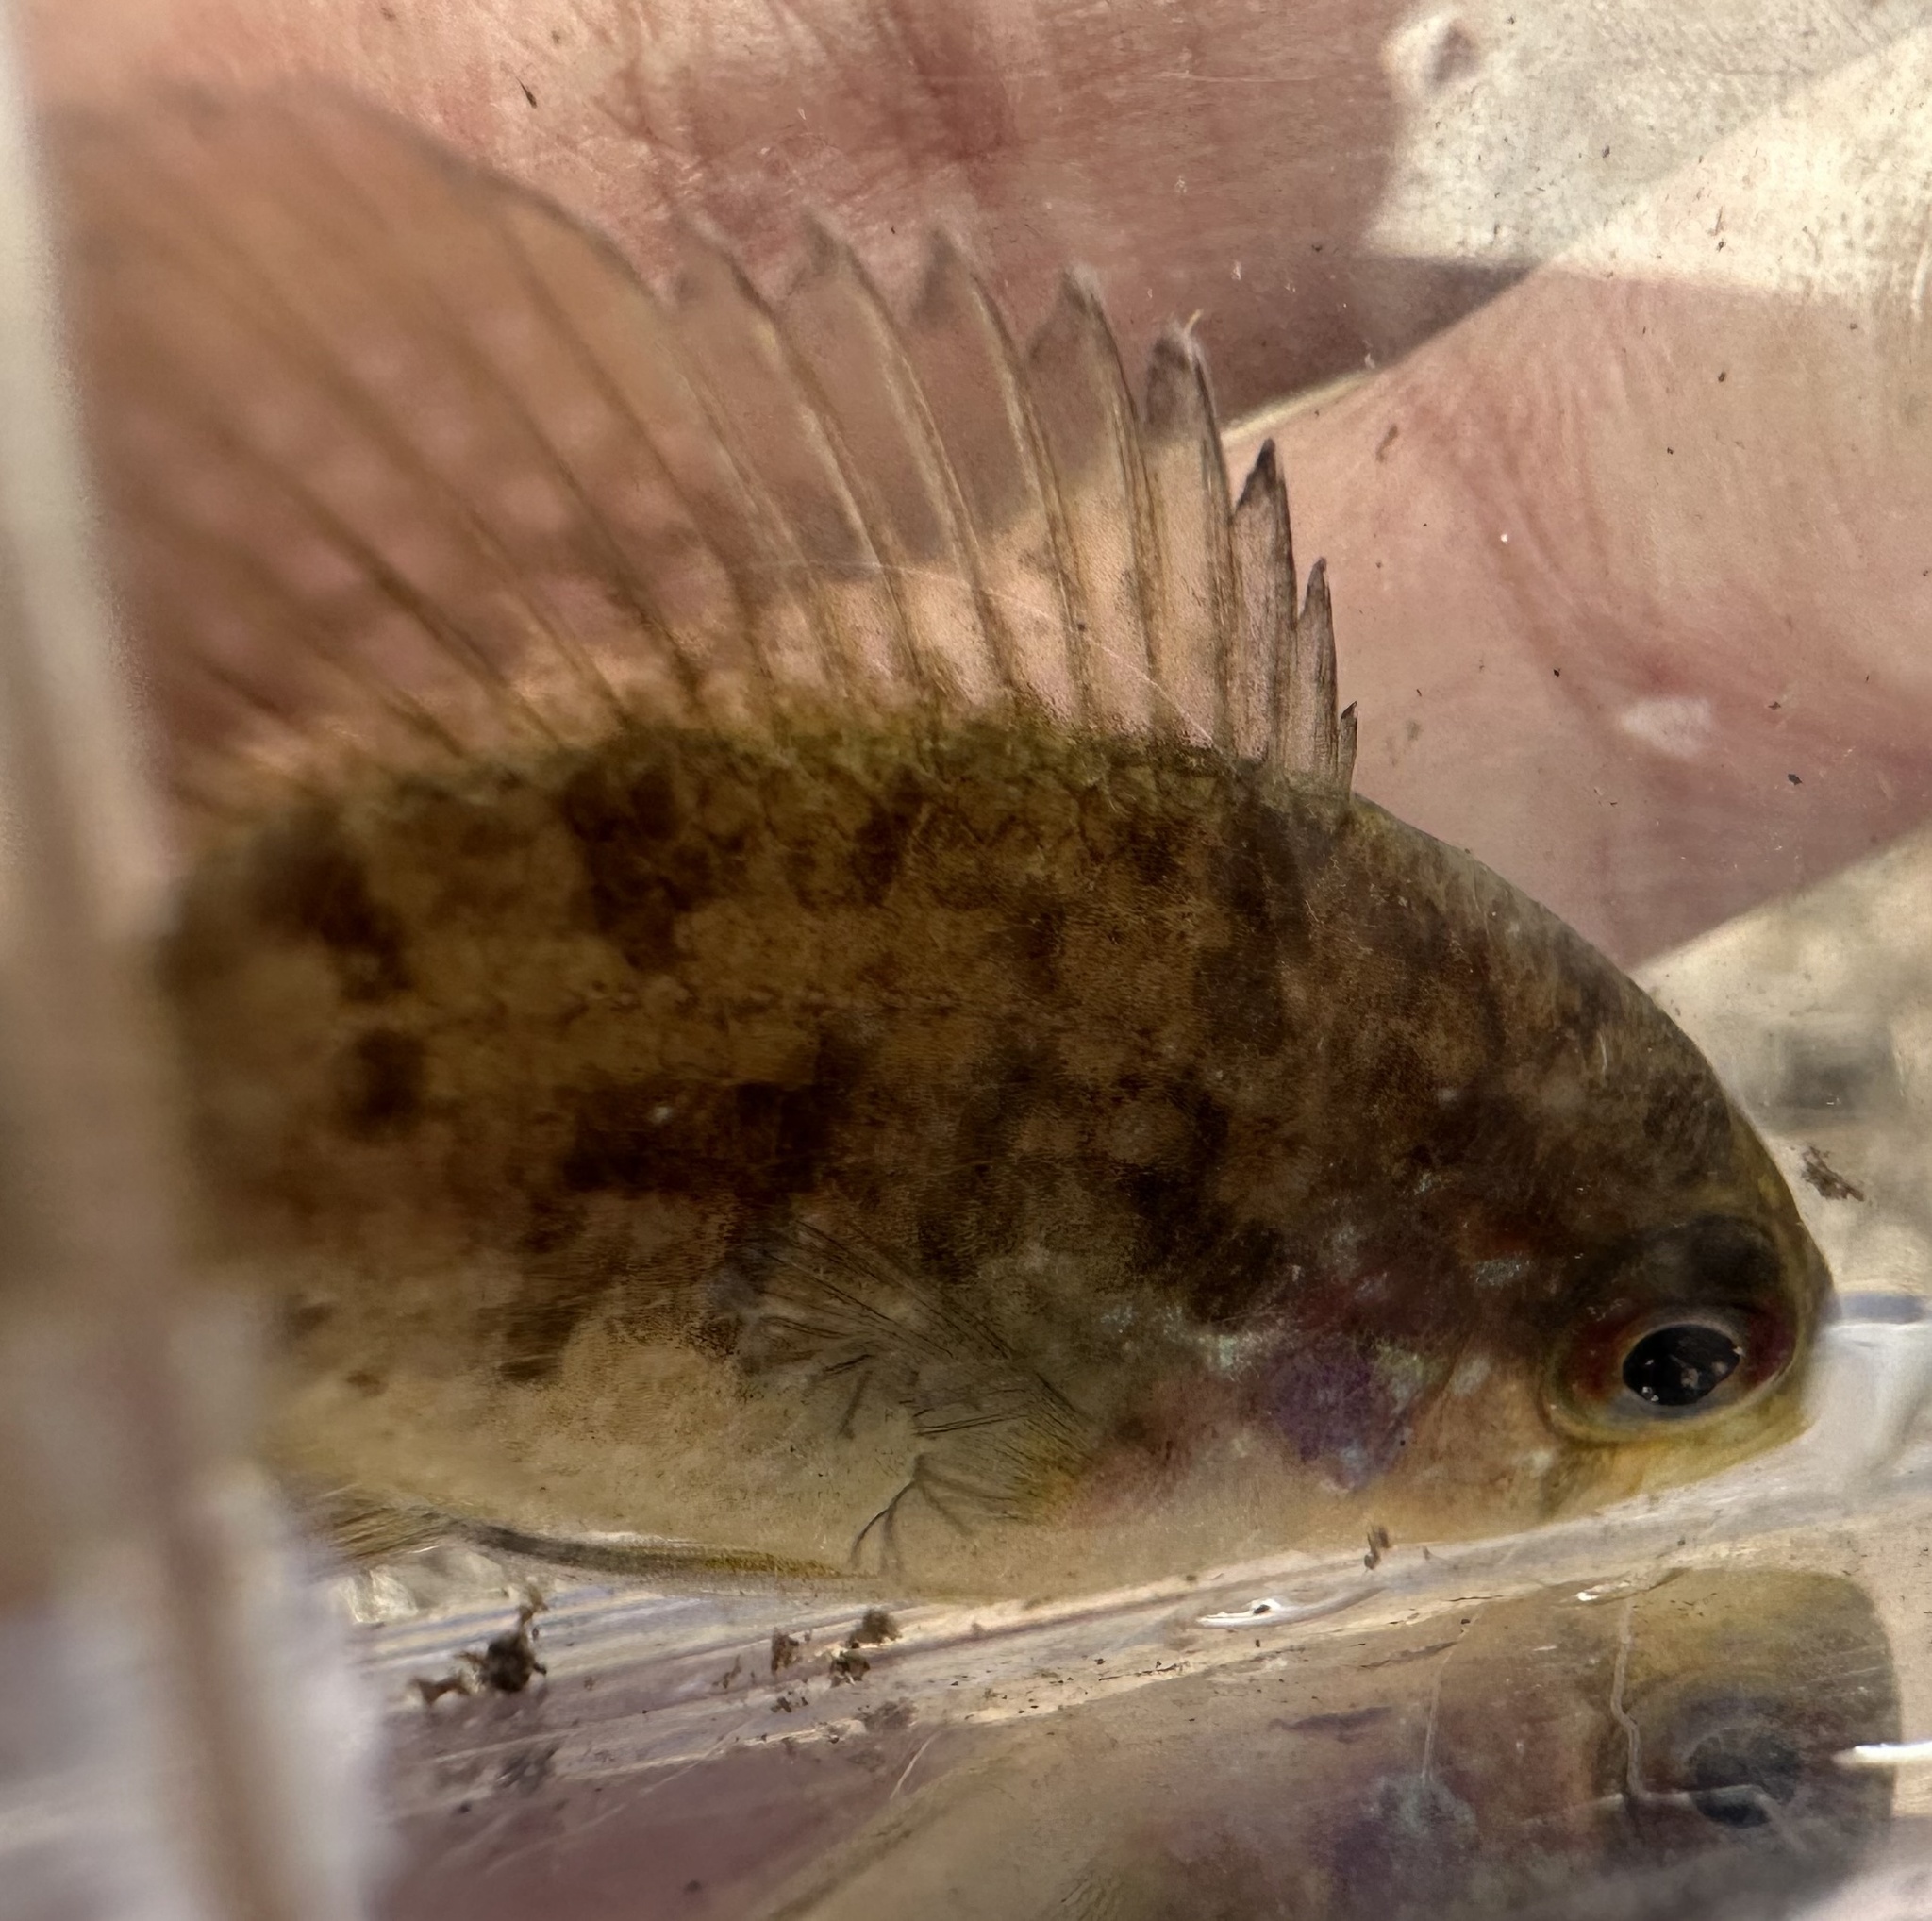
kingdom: Animalia
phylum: Chordata
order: Perciformes
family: Centrarchidae
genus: Enneacanthus
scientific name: Enneacanthus obesus
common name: Banded sunfish
